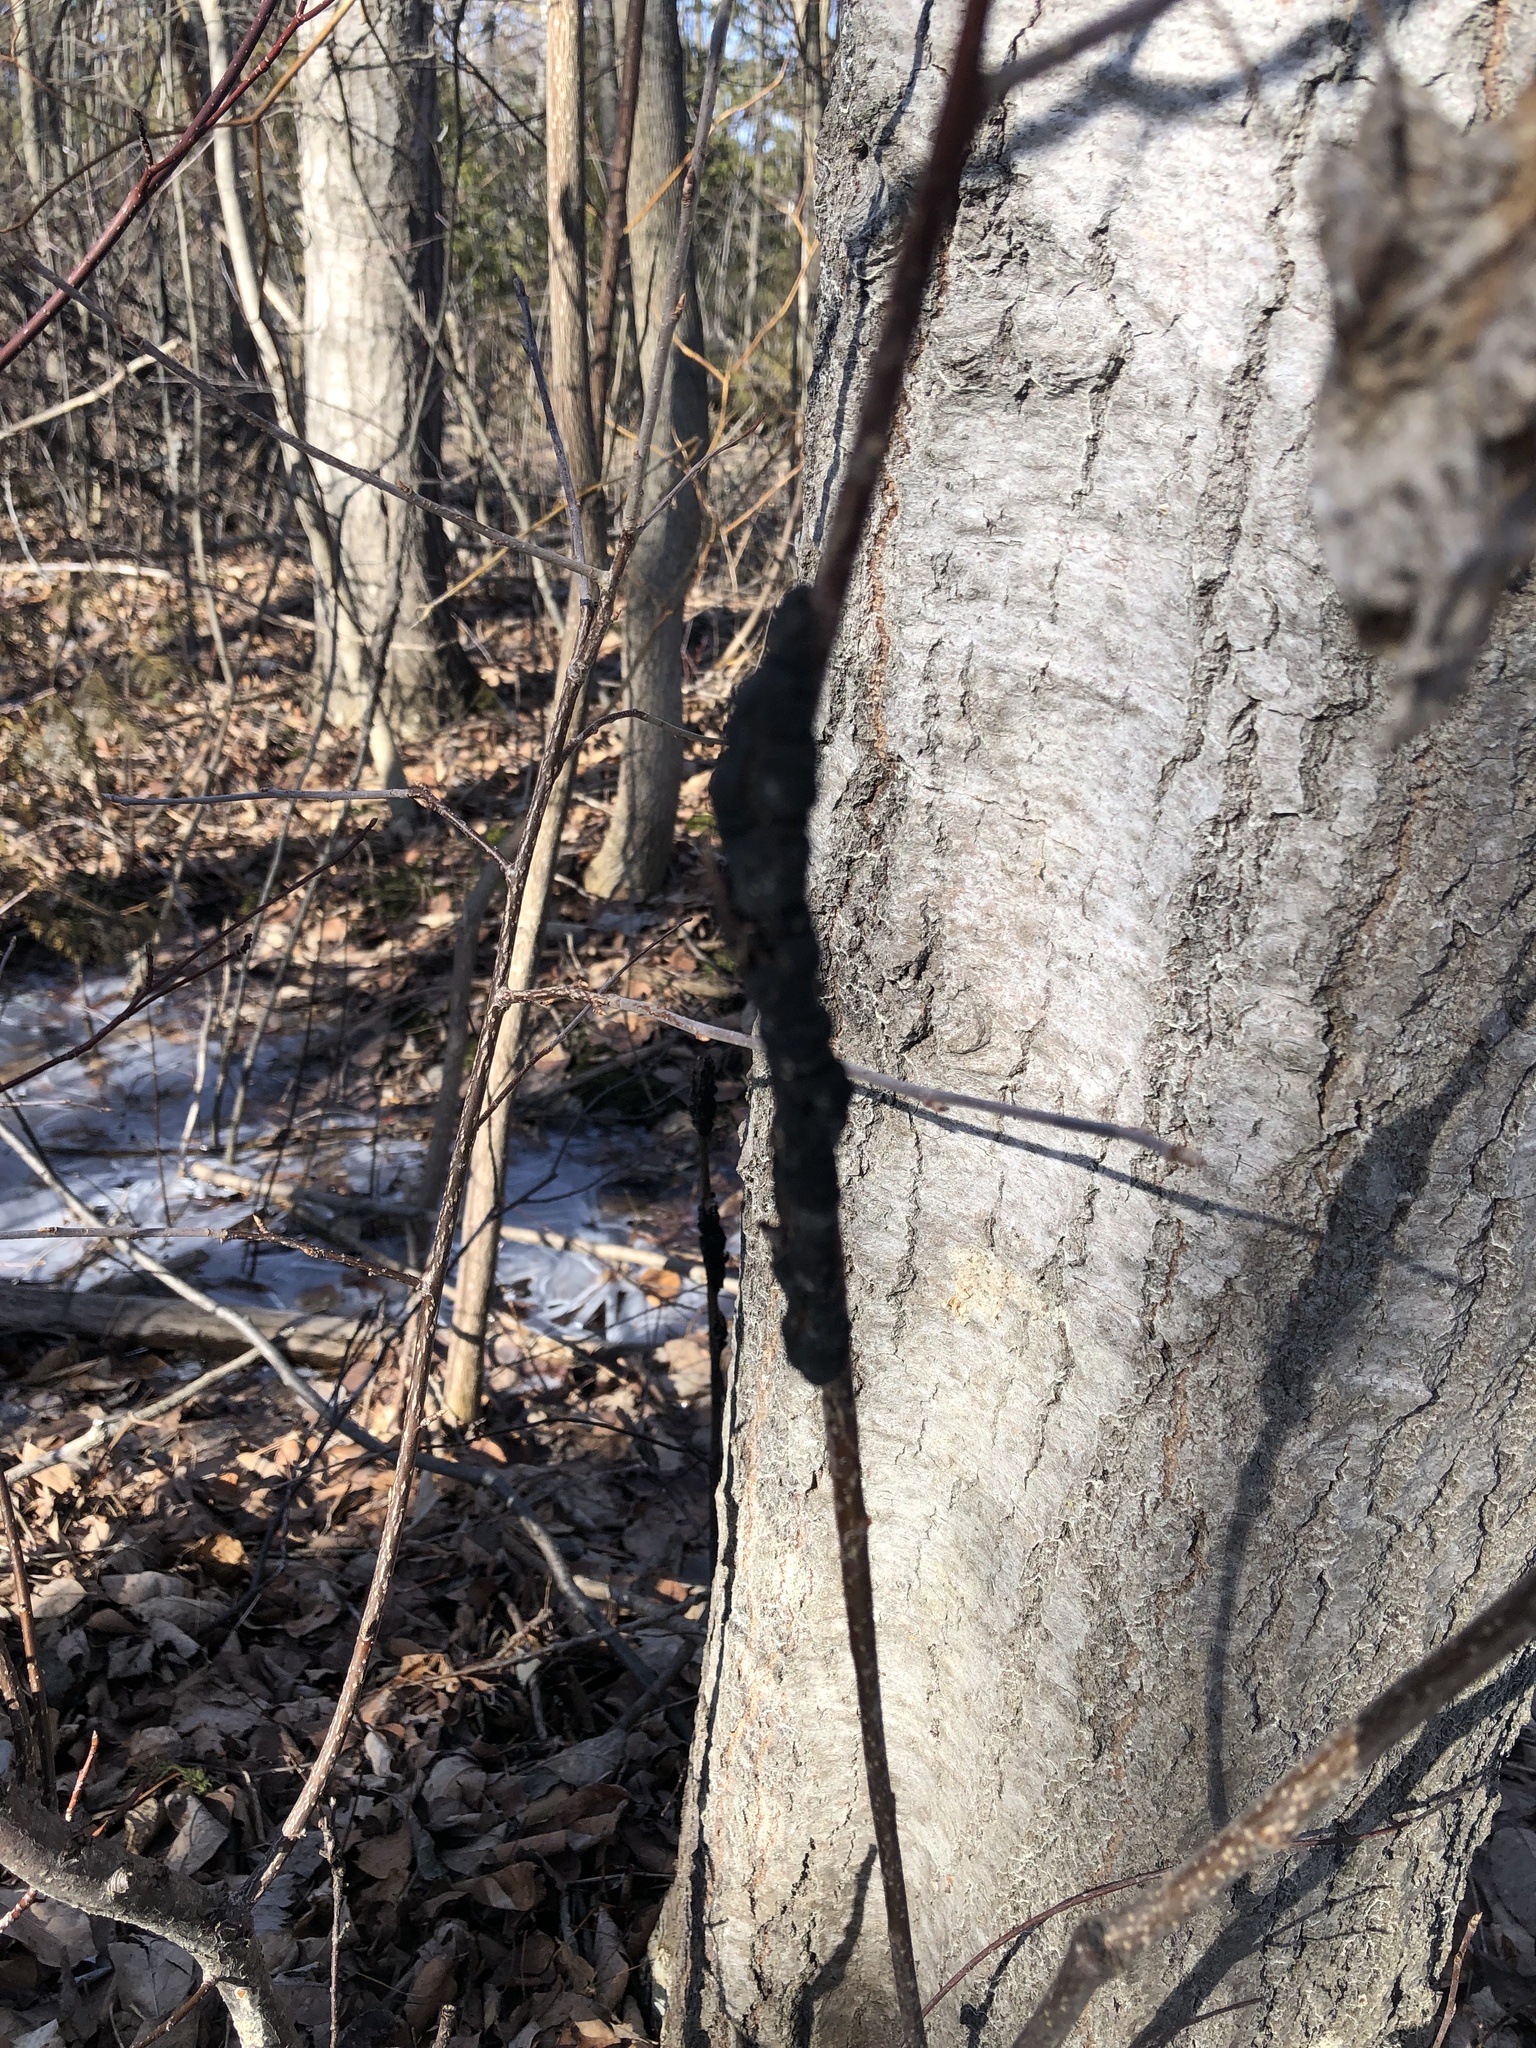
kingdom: Fungi
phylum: Ascomycota
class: Dothideomycetes
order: Venturiales
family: Venturiaceae
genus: Apiosporina
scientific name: Apiosporina morbosa
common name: Black knot
